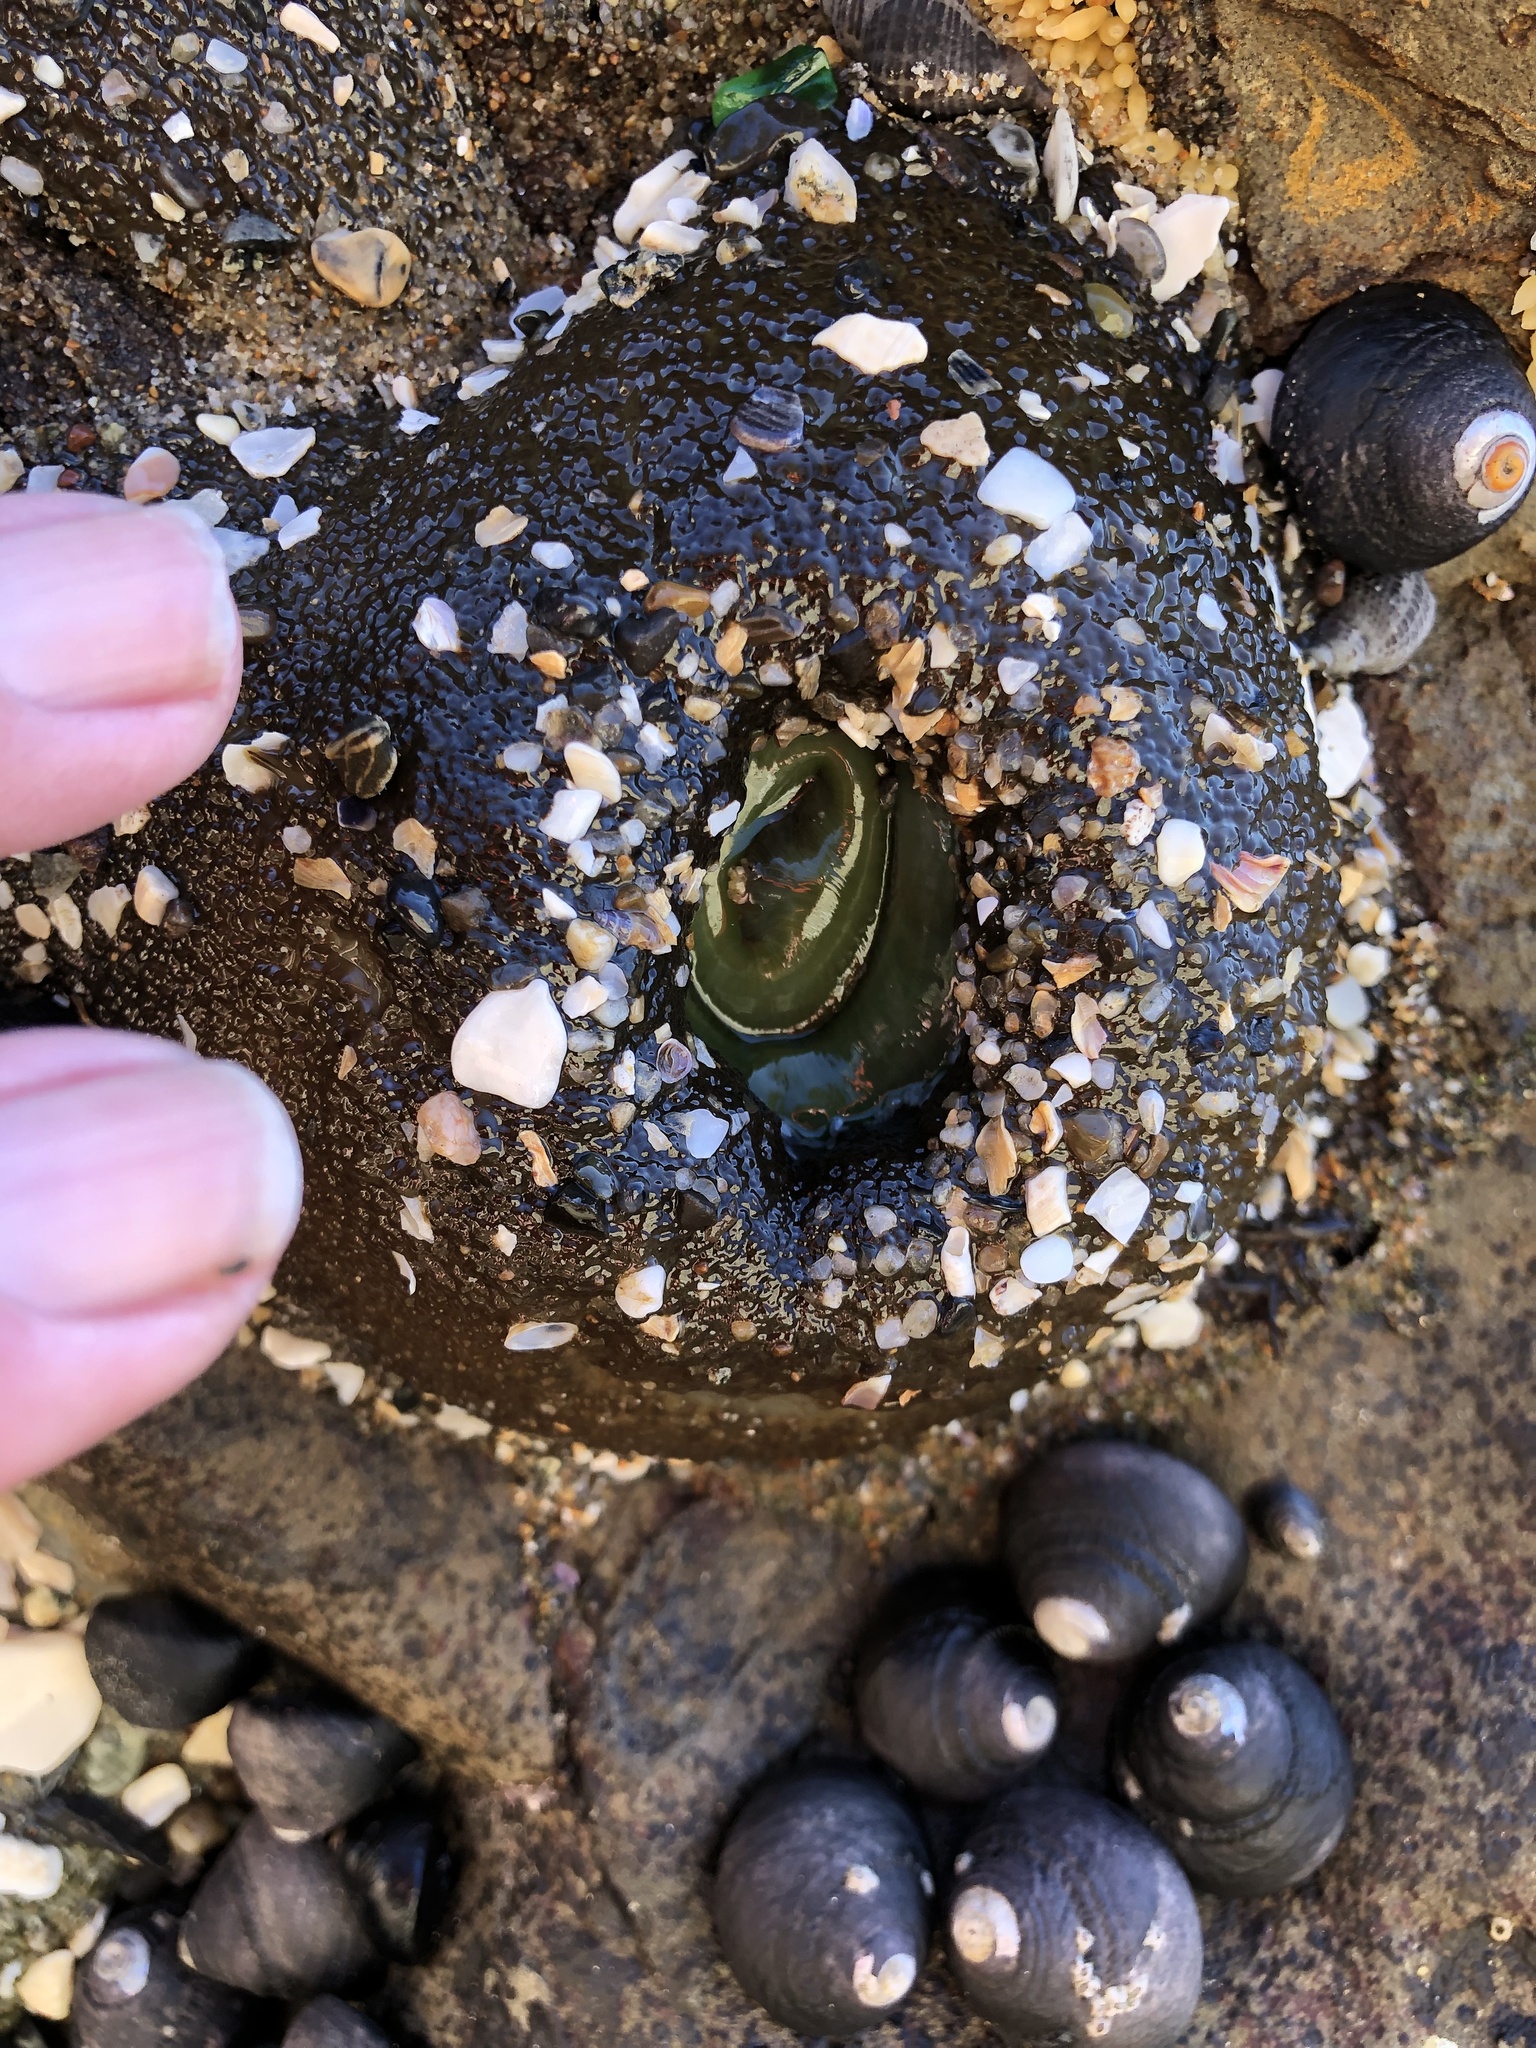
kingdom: Animalia
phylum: Cnidaria
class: Anthozoa
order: Actiniaria
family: Actiniidae
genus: Anthopleura
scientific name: Anthopleura xanthogrammica
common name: Giant green anemone
